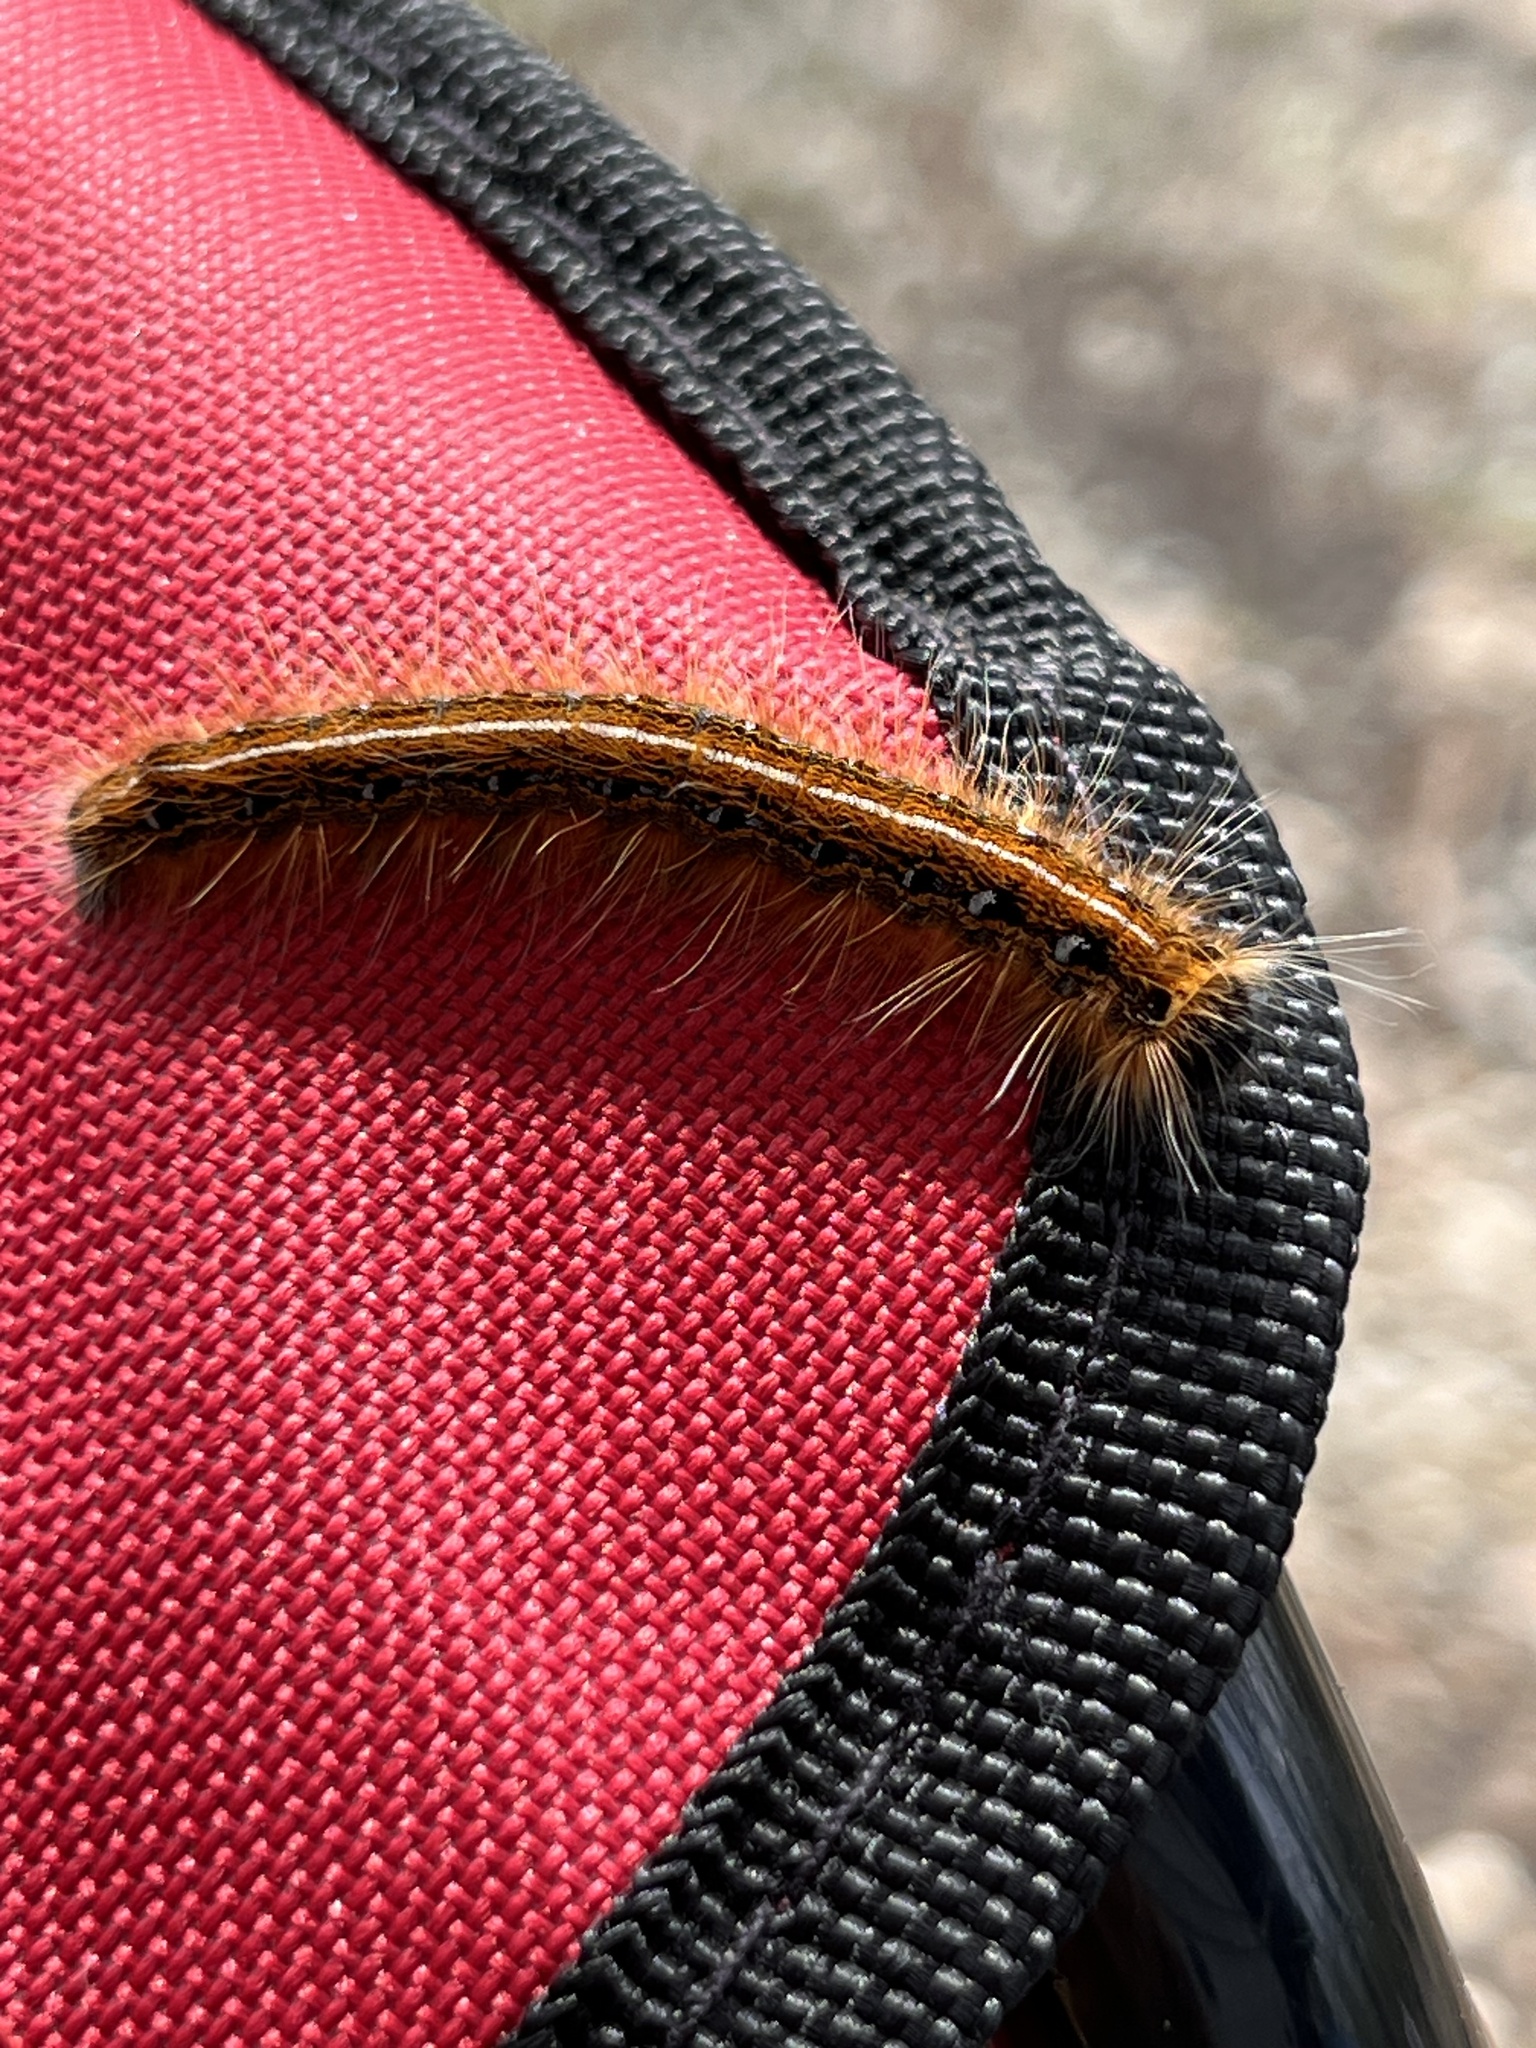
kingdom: Animalia
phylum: Arthropoda
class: Insecta
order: Lepidoptera
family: Lasiocampidae
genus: Malacosoma
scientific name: Malacosoma americana
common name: Eastern tent caterpillar moth
